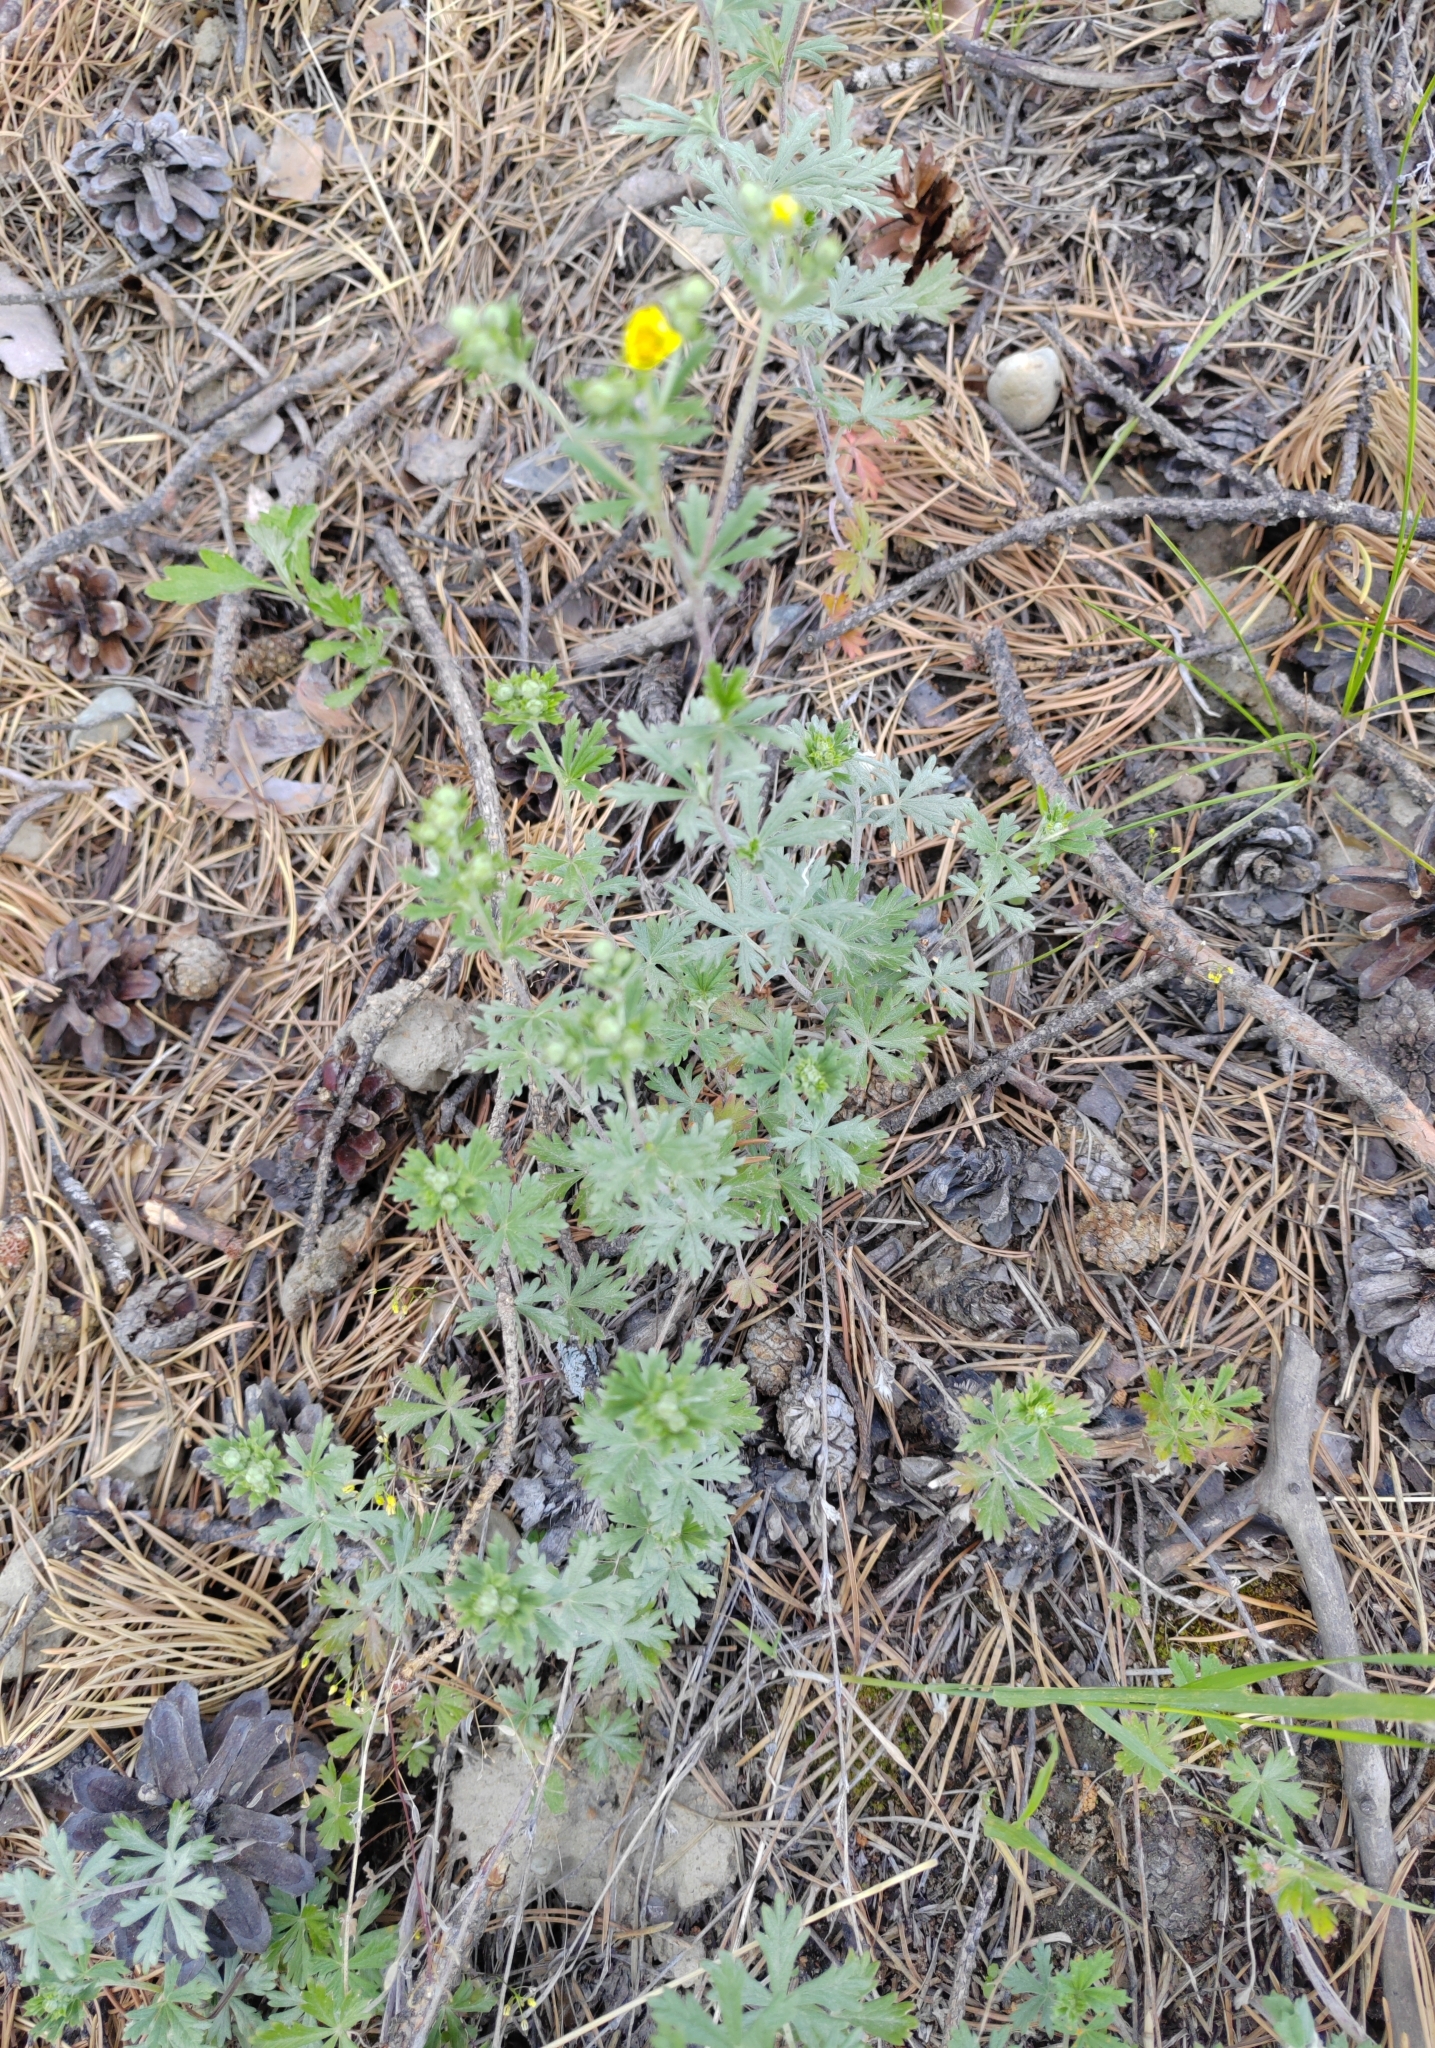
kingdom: Plantae
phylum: Tracheophyta
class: Magnoliopsida
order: Rosales
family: Rosaceae
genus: Potentilla
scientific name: Potentilla argentea
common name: Hoary cinquefoil
